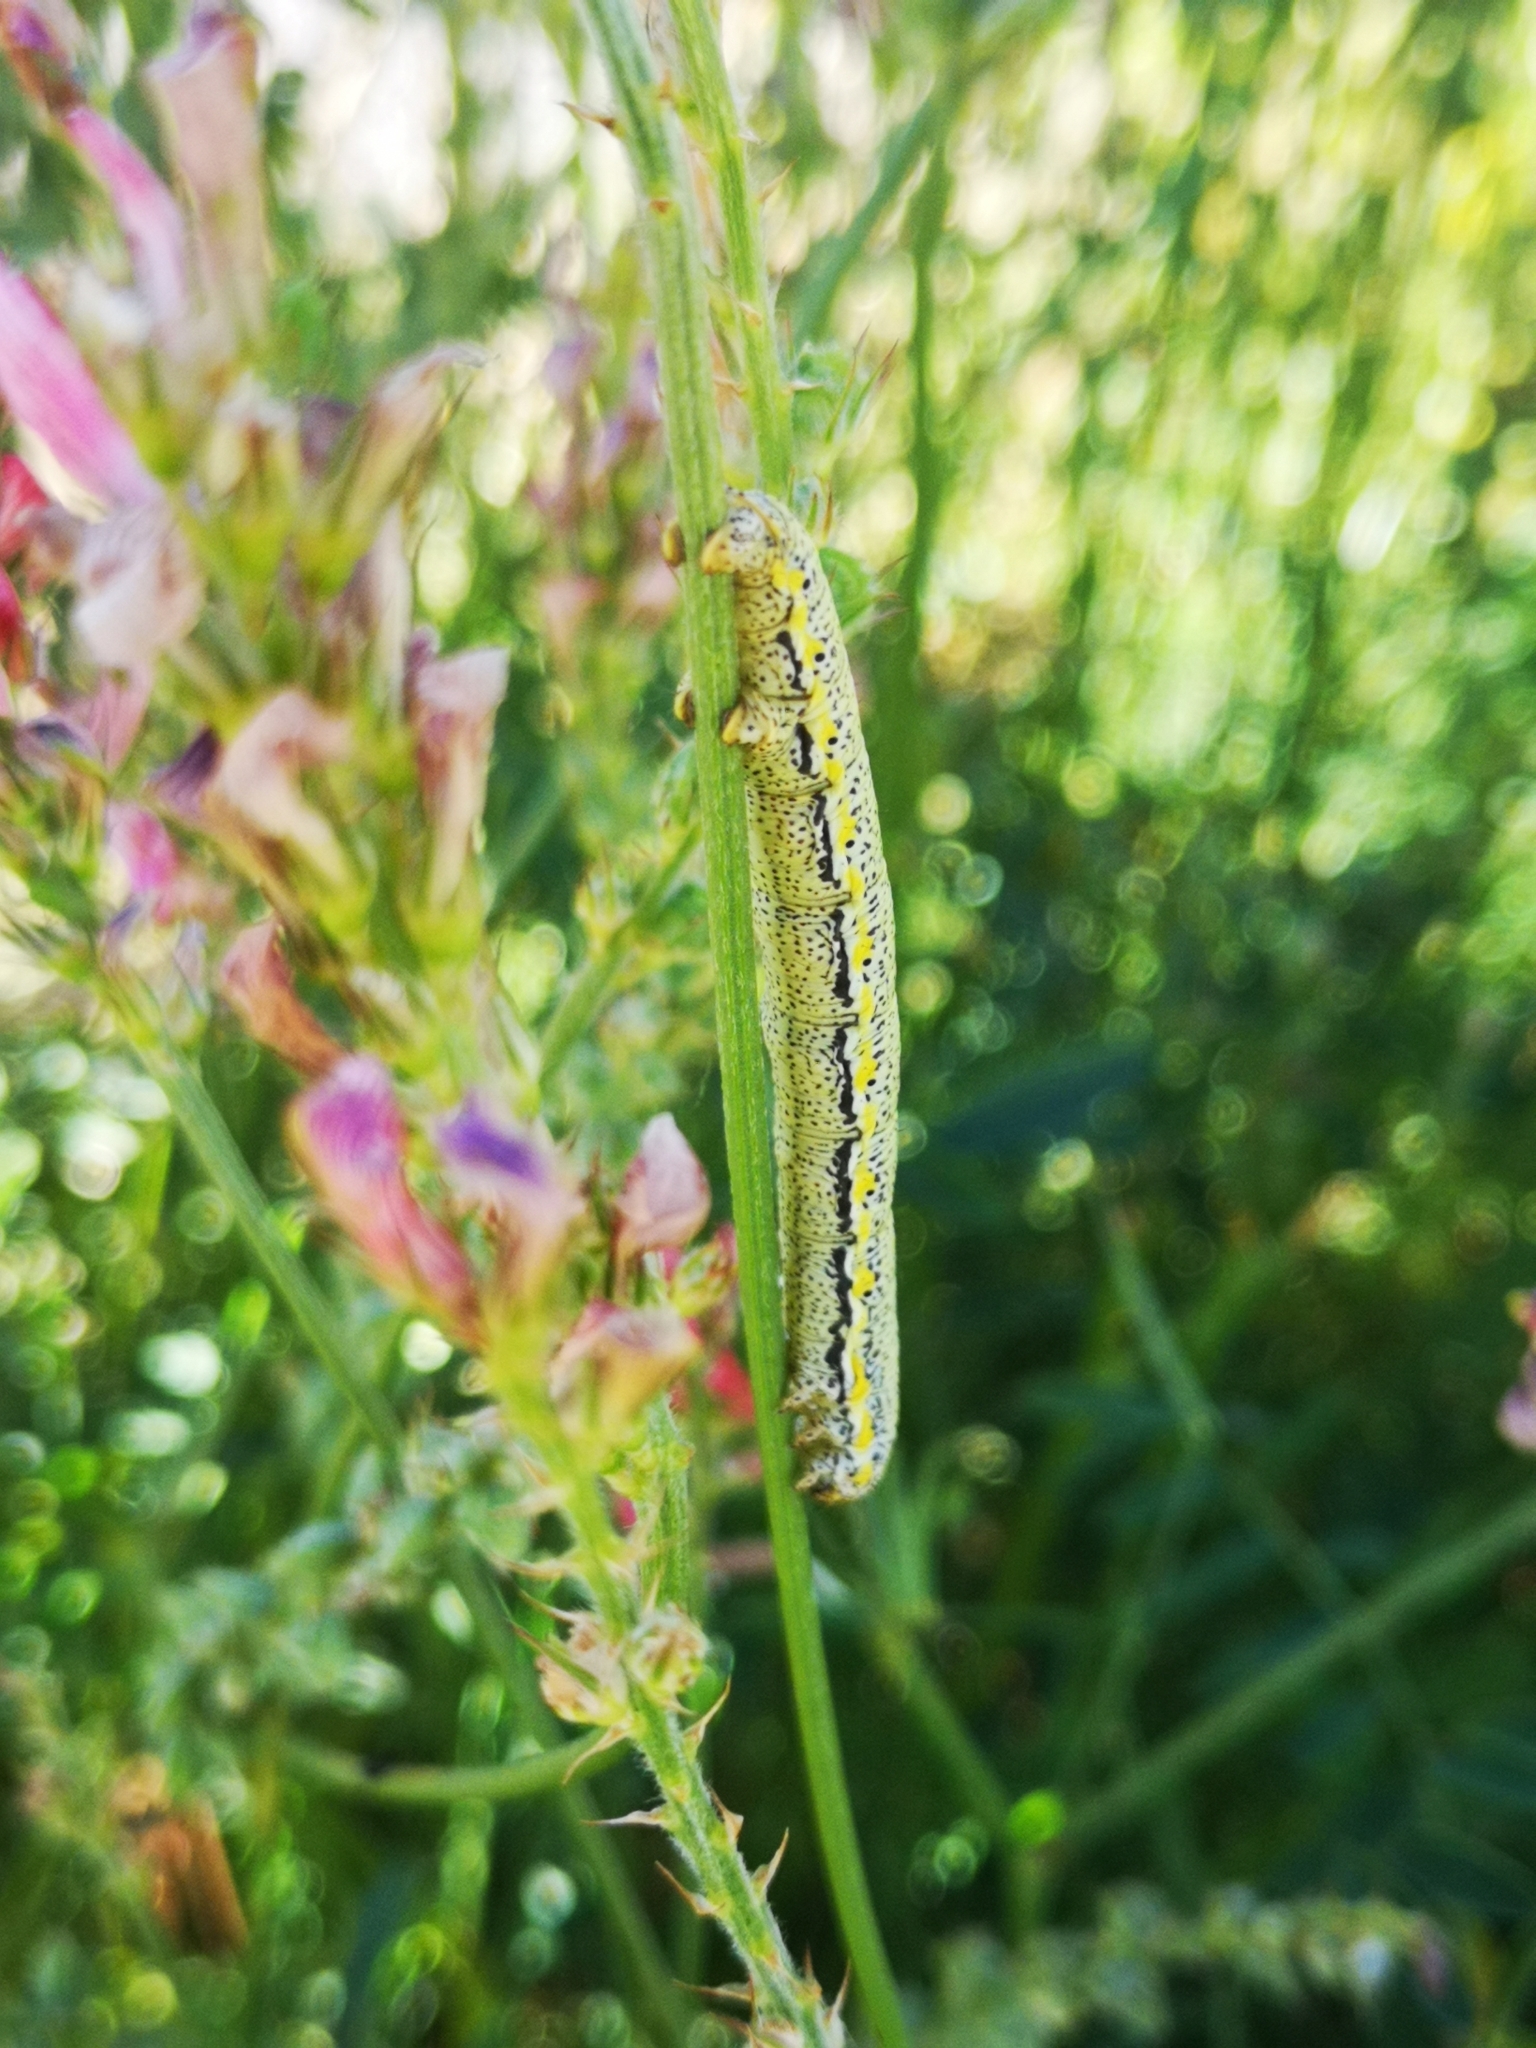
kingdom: Animalia
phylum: Arthropoda
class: Insecta
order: Lepidoptera
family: Geometridae
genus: Lycia
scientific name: Lycia florentina
